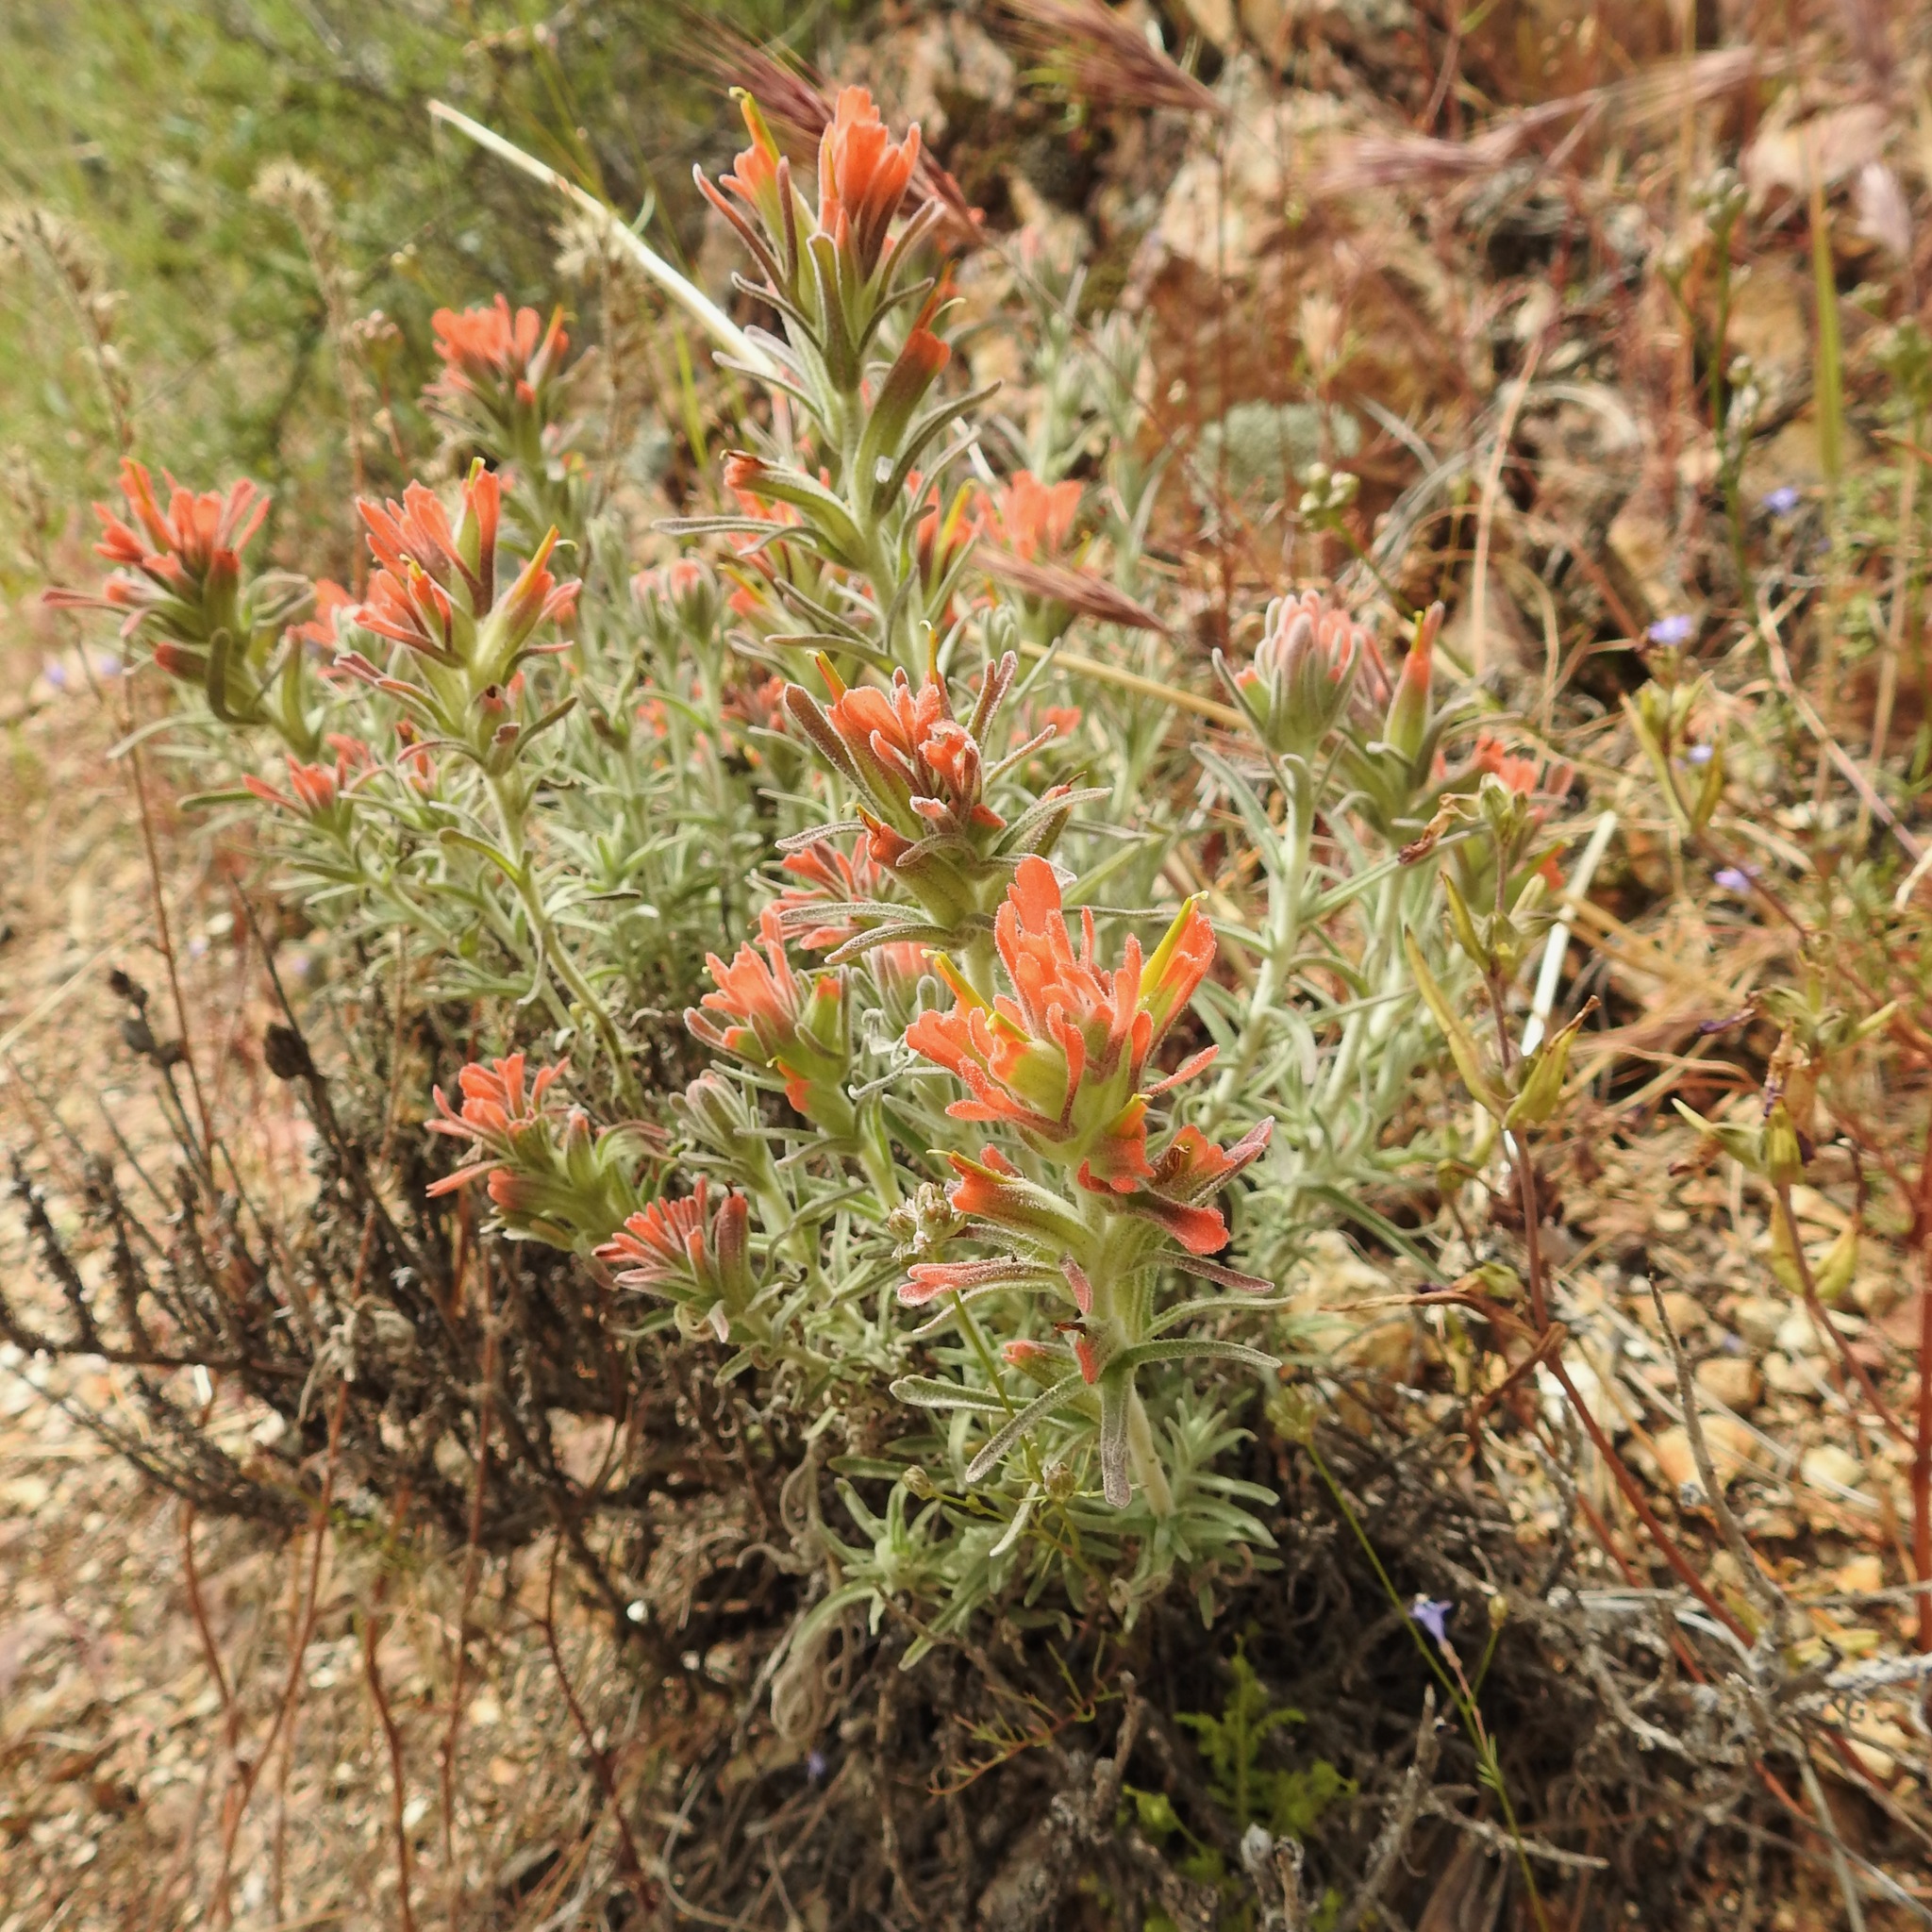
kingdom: Plantae
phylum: Tracheophyta
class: Magnoliopsida
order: Lamiales
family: Orobanchaceae
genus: Castilleja
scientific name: Castilleja foliolosa
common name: Woolly indian paintbrush
